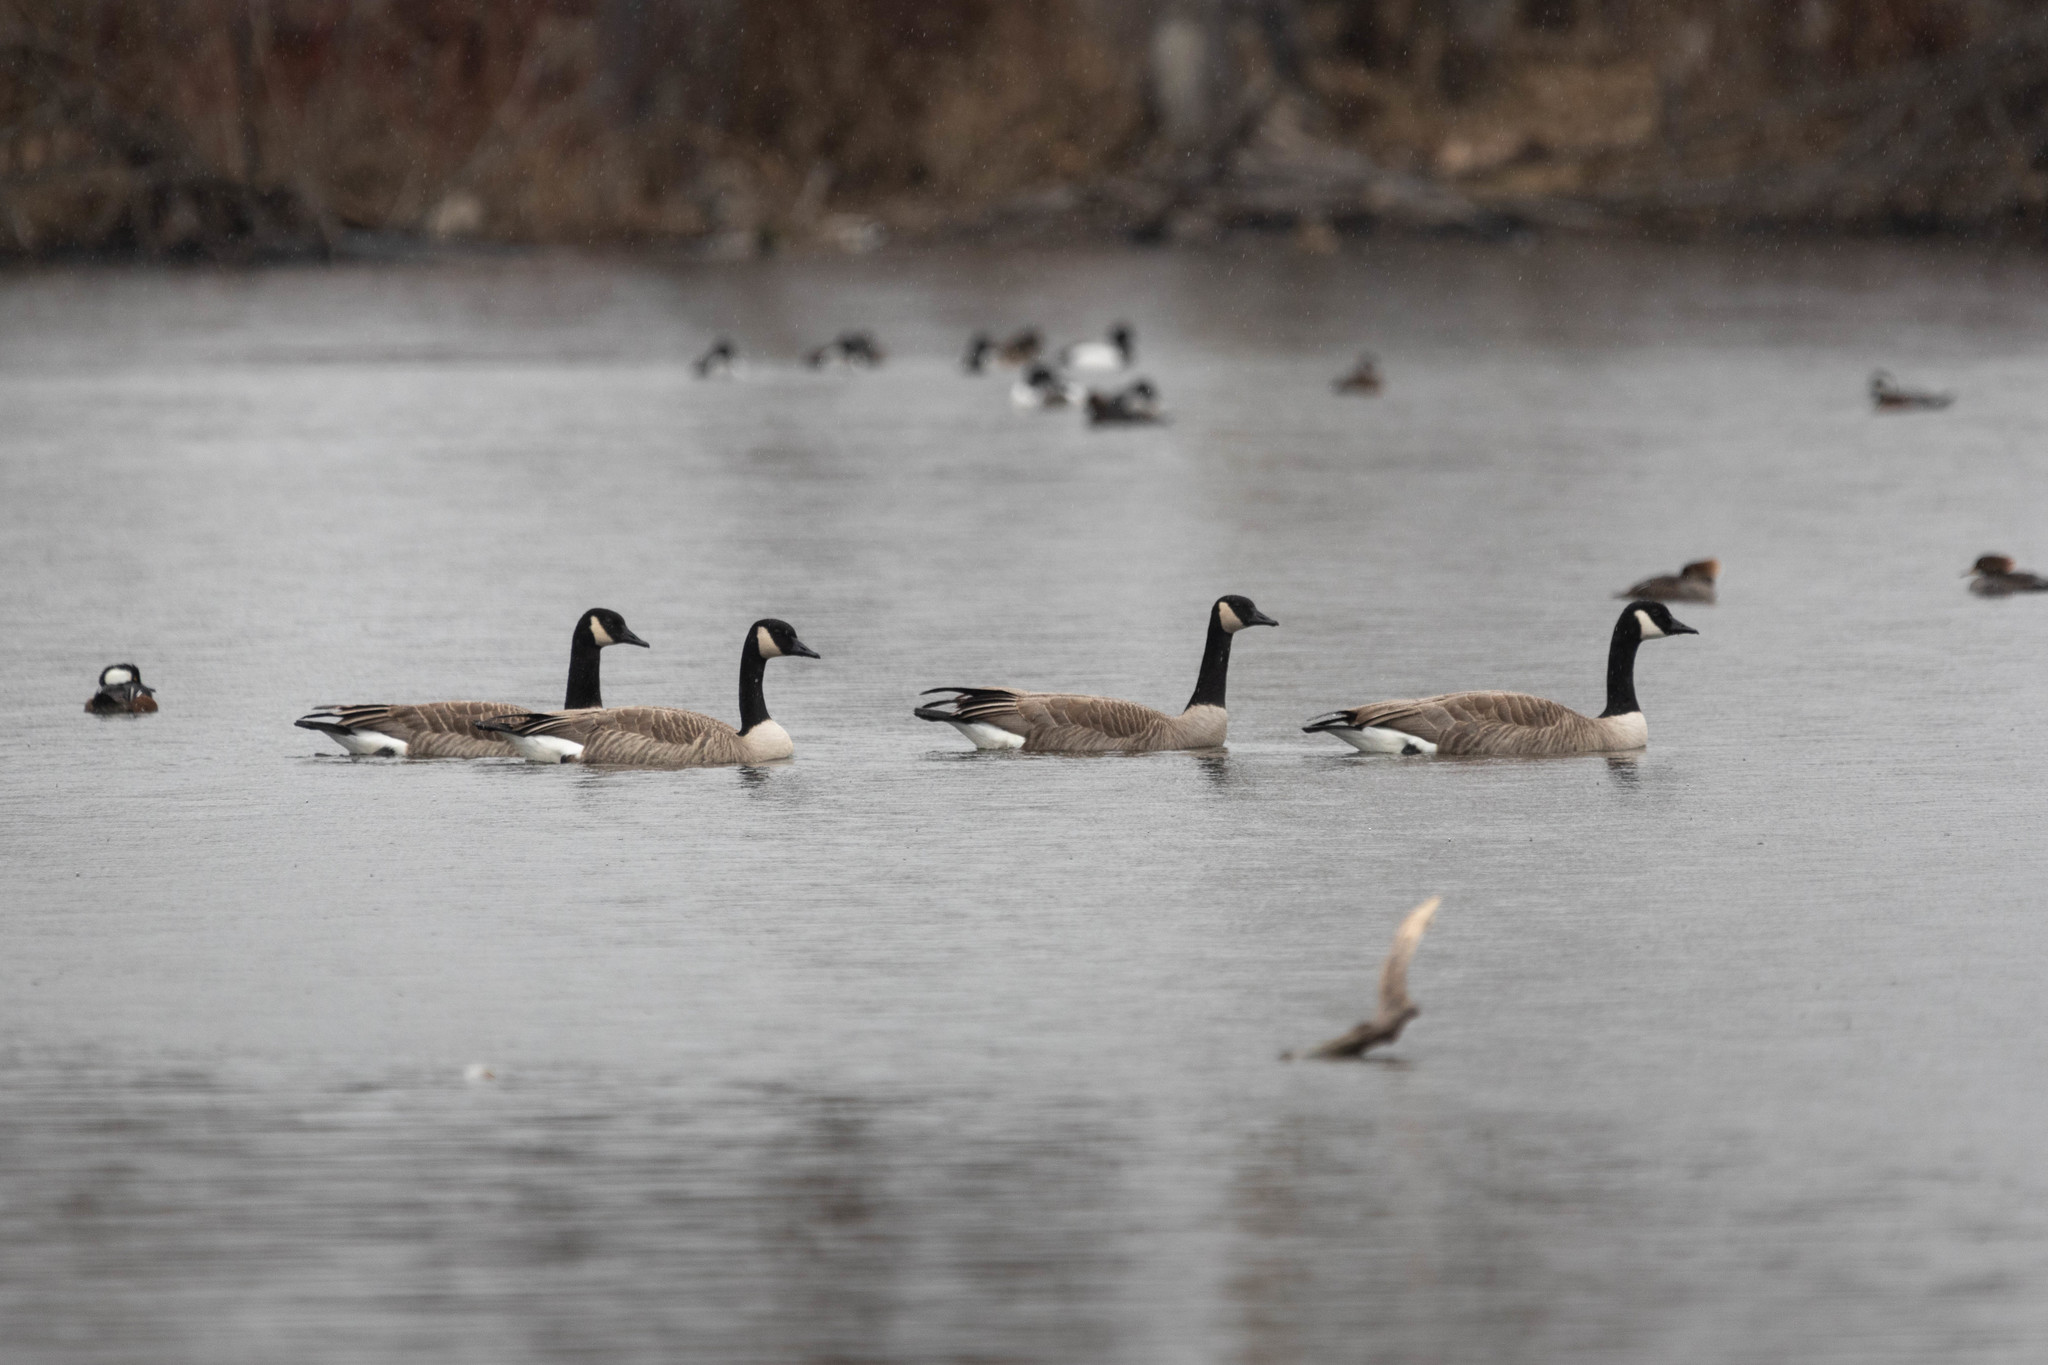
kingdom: Animalia
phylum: Chordata
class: Aves
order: Anseriformes
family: Anatidae
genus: Branta
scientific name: Branta canadensis
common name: Canada goose
